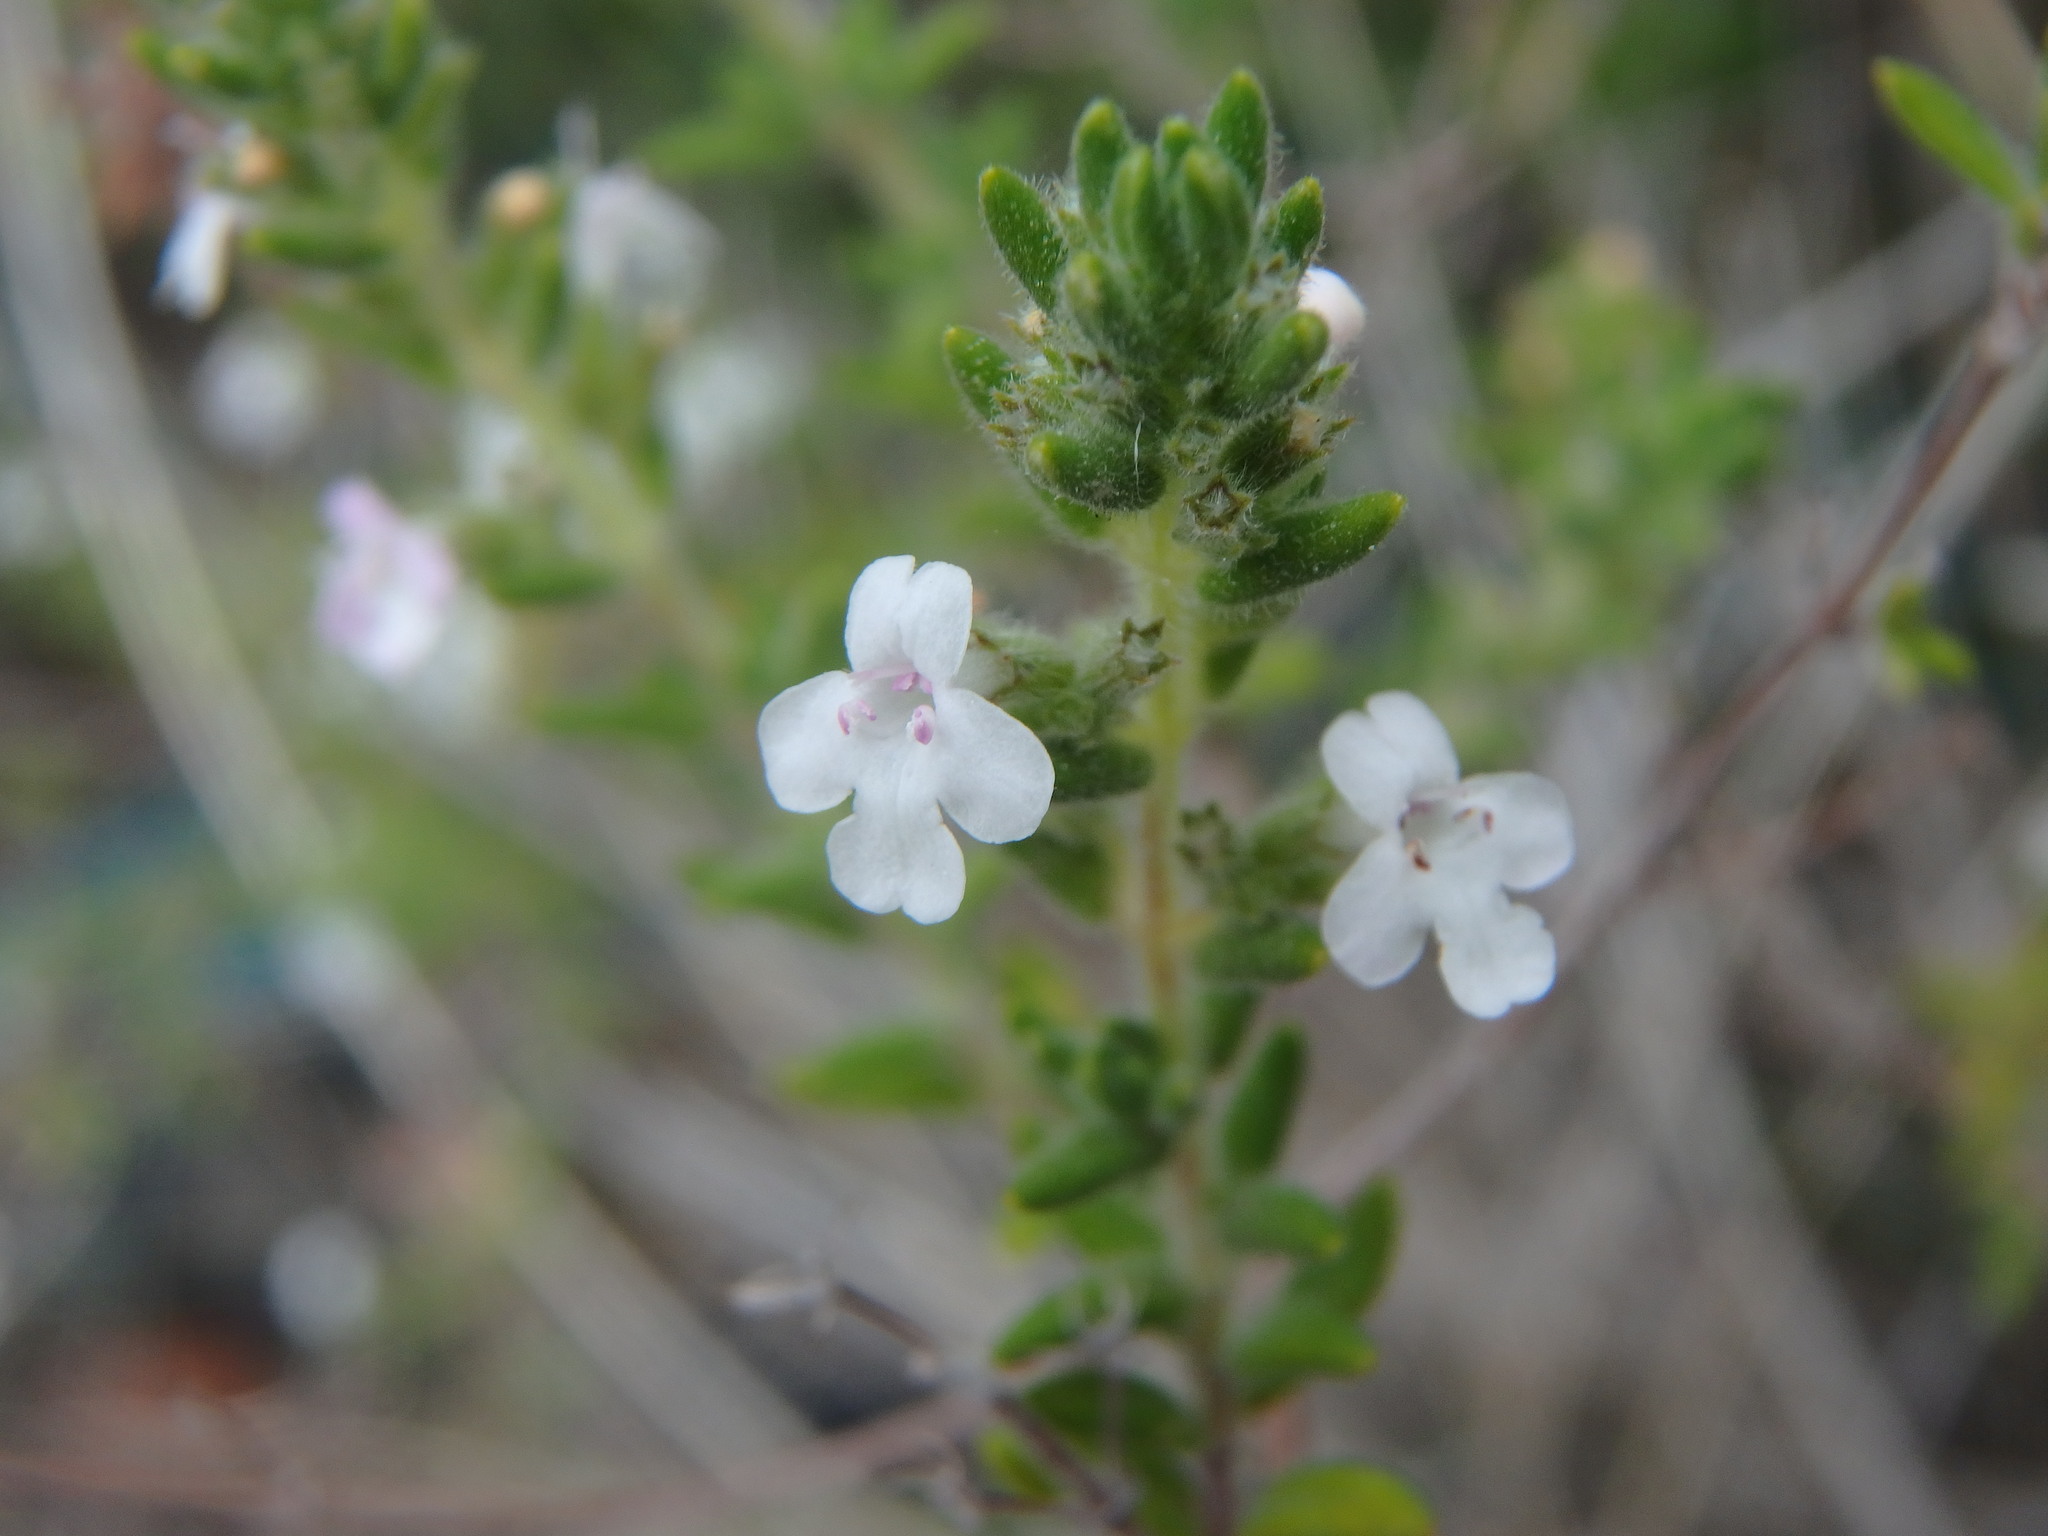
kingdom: Plantae
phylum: Tracheophyta
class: Magnoliopsida
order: Lamiales
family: Lamiaceae
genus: Micromeria
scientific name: Micromeria ericifolia
